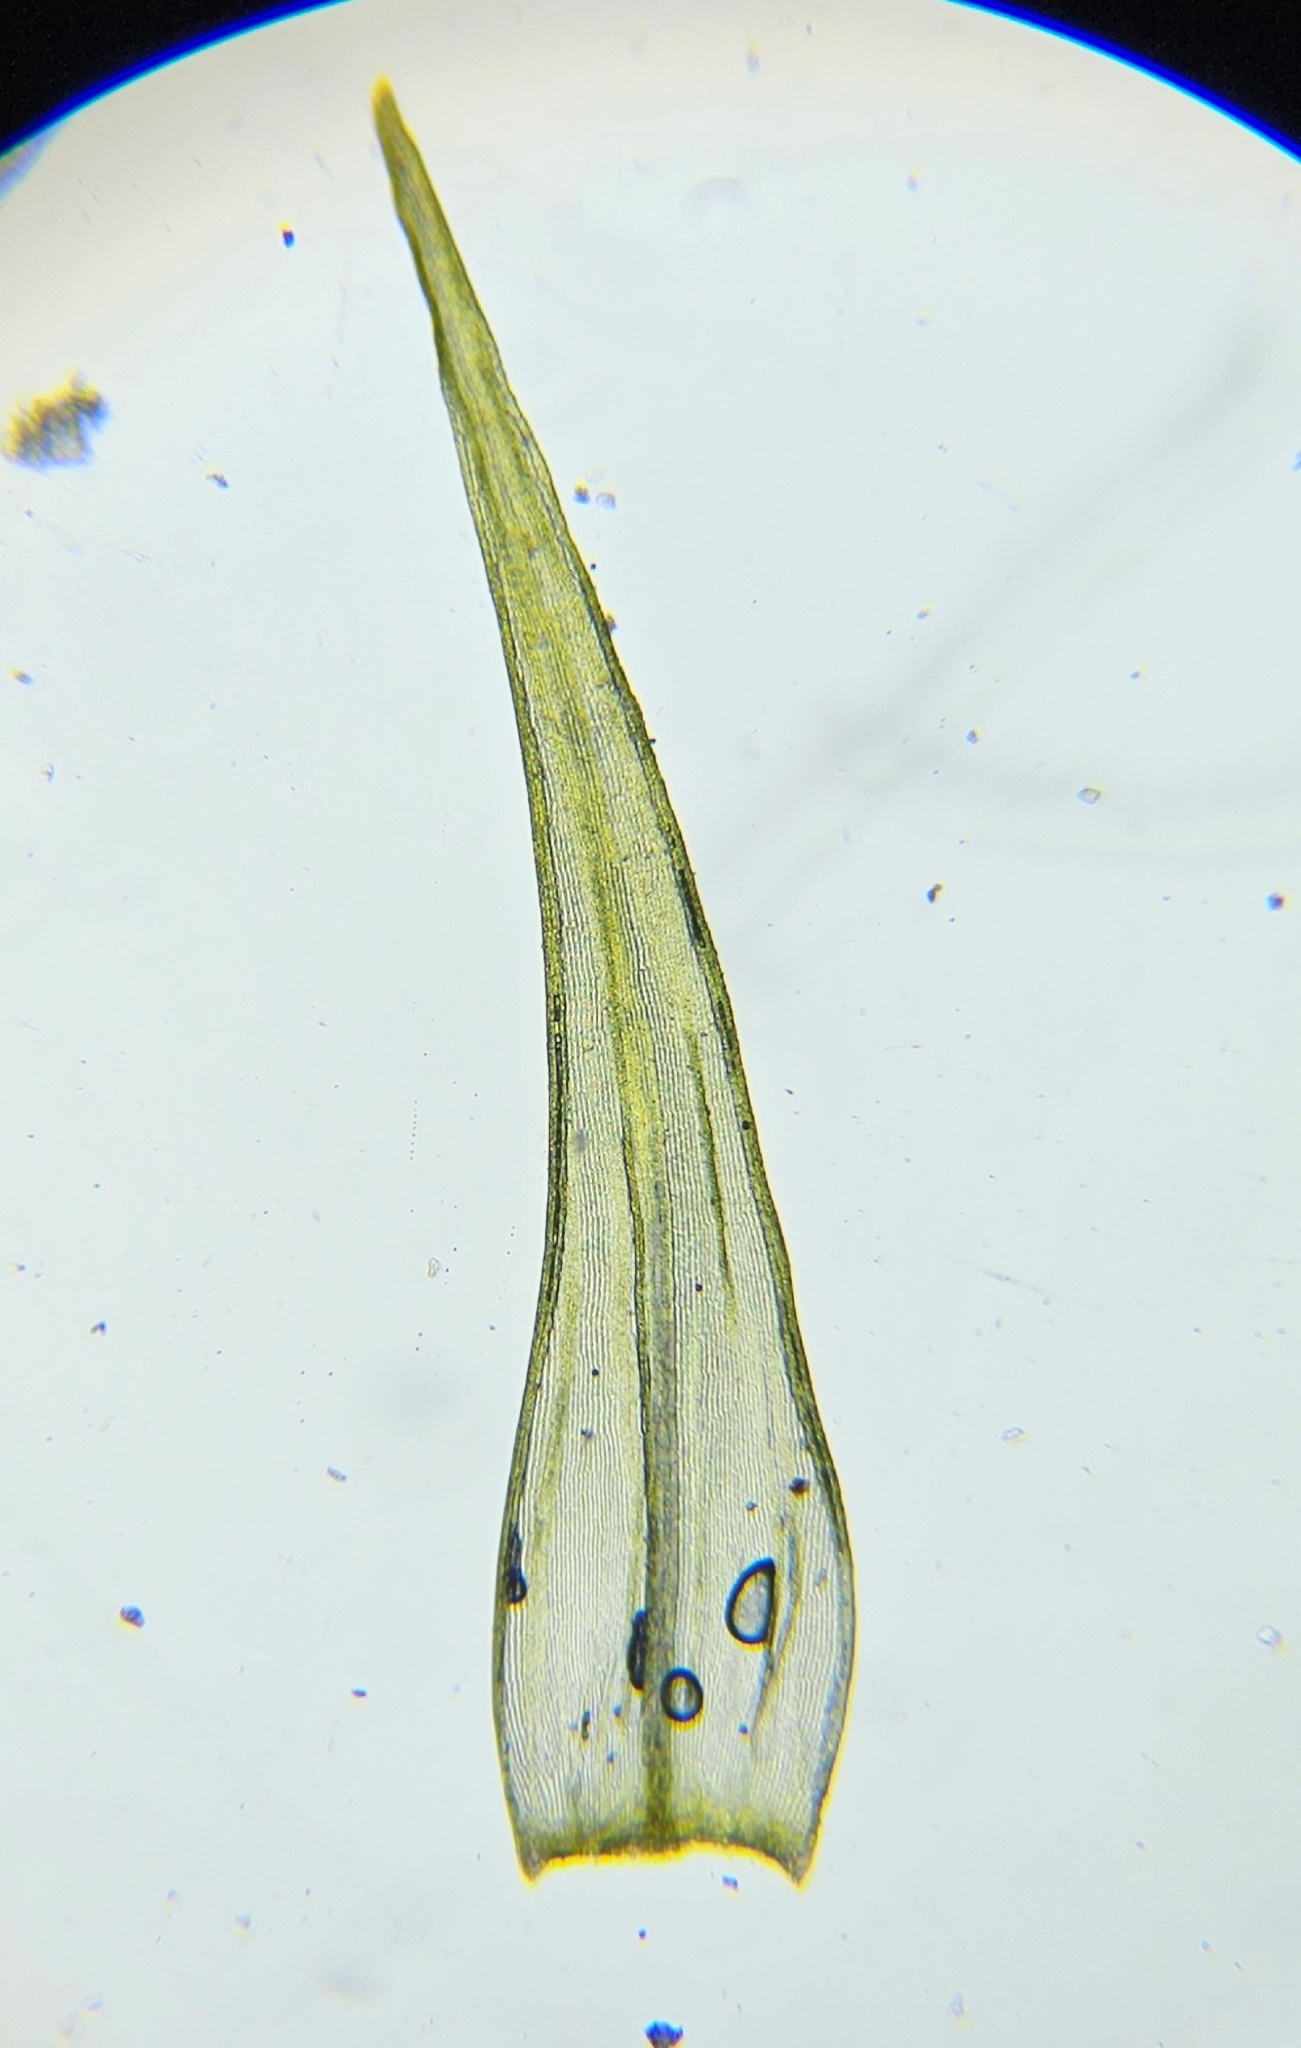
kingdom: Plantae
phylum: Bryophyta
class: Bryopsida
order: Grimmiales
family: Grimmiaceae
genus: Dilutineuron
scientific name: Dilutineuron fasciculare
